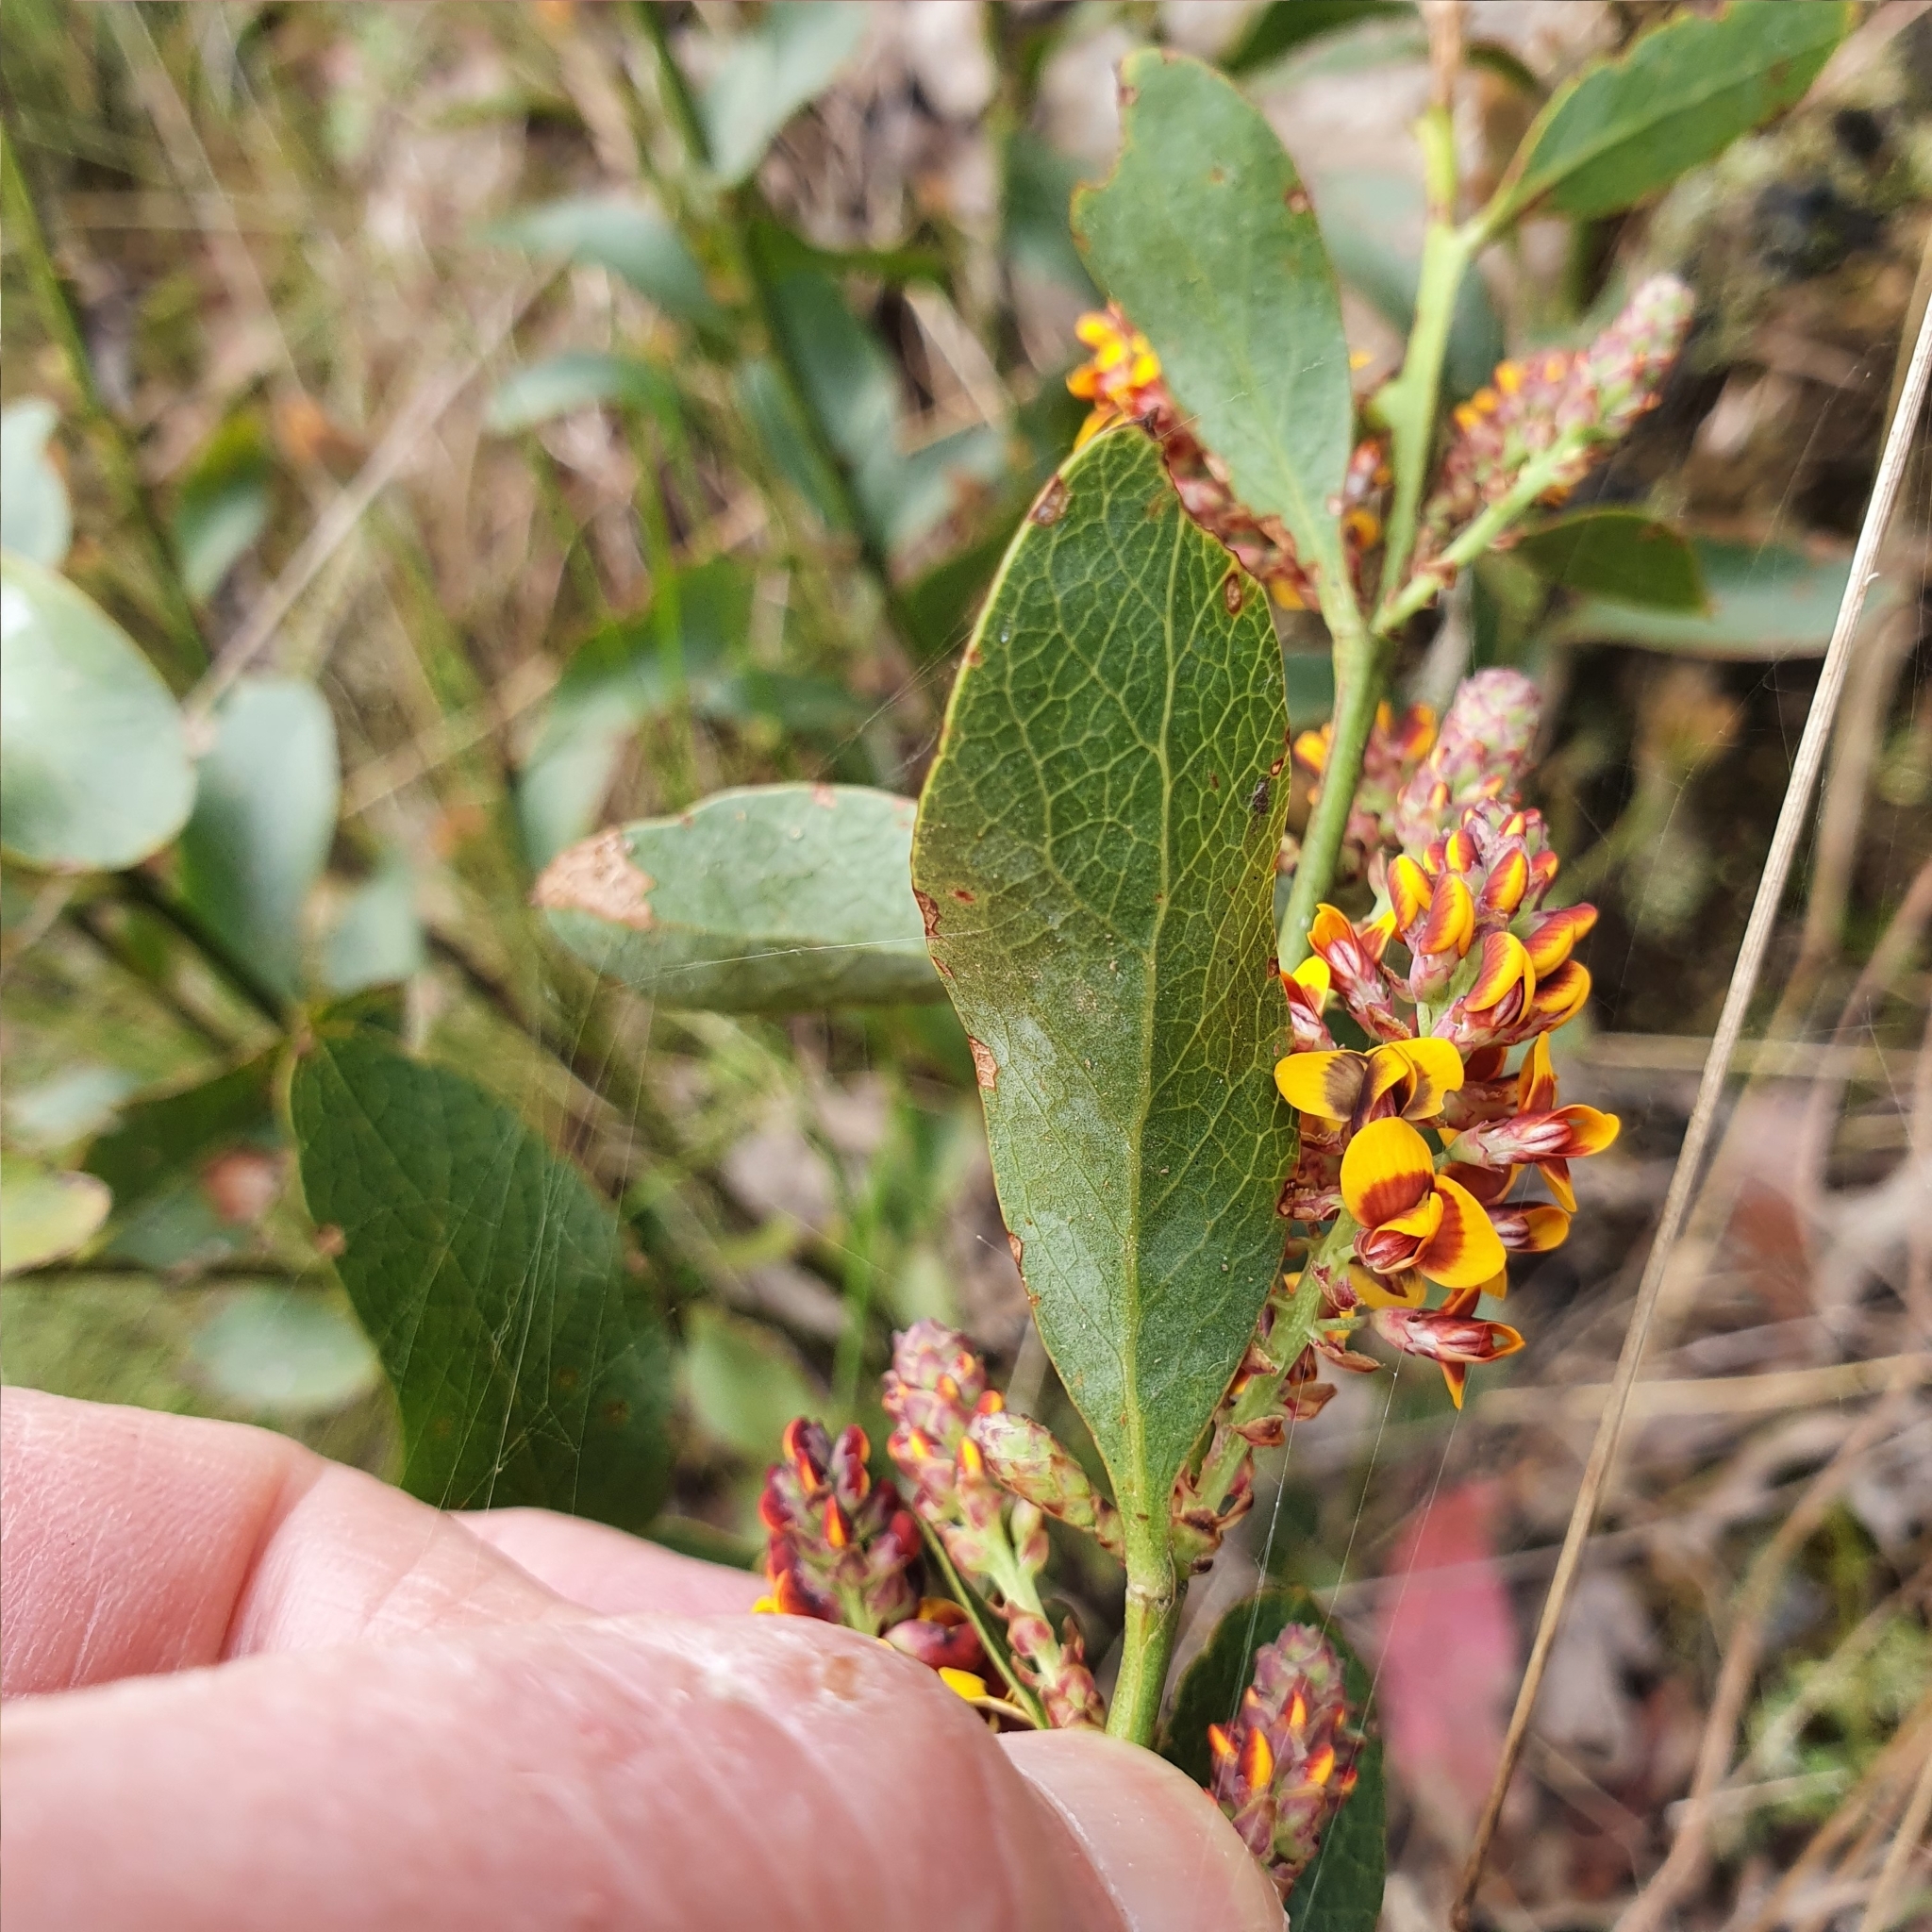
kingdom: Plantae
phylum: Tracheophyta
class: Magnoliopsida
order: Fabales
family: Fabaceae
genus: Daviesia
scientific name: Daviesia latifolia
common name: Hop bitter-pea
